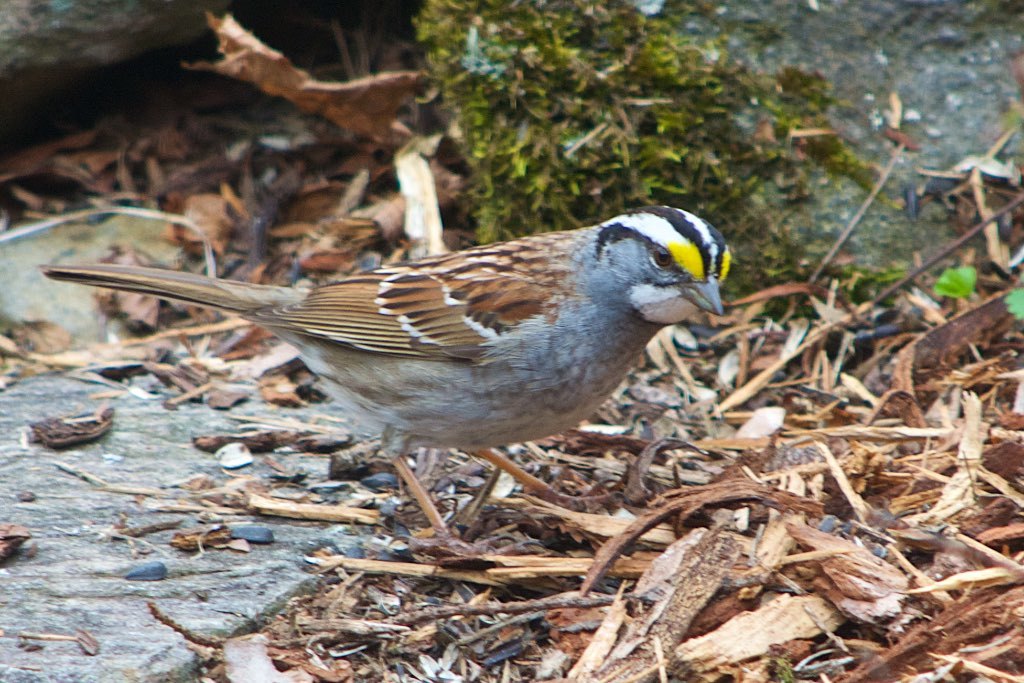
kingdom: Animalia
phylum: Chordata
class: Aves
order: Passeriformes
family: Passerellidae
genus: Zonotrichia
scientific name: Zonotrichia albicollis
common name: White-throated sparrow
